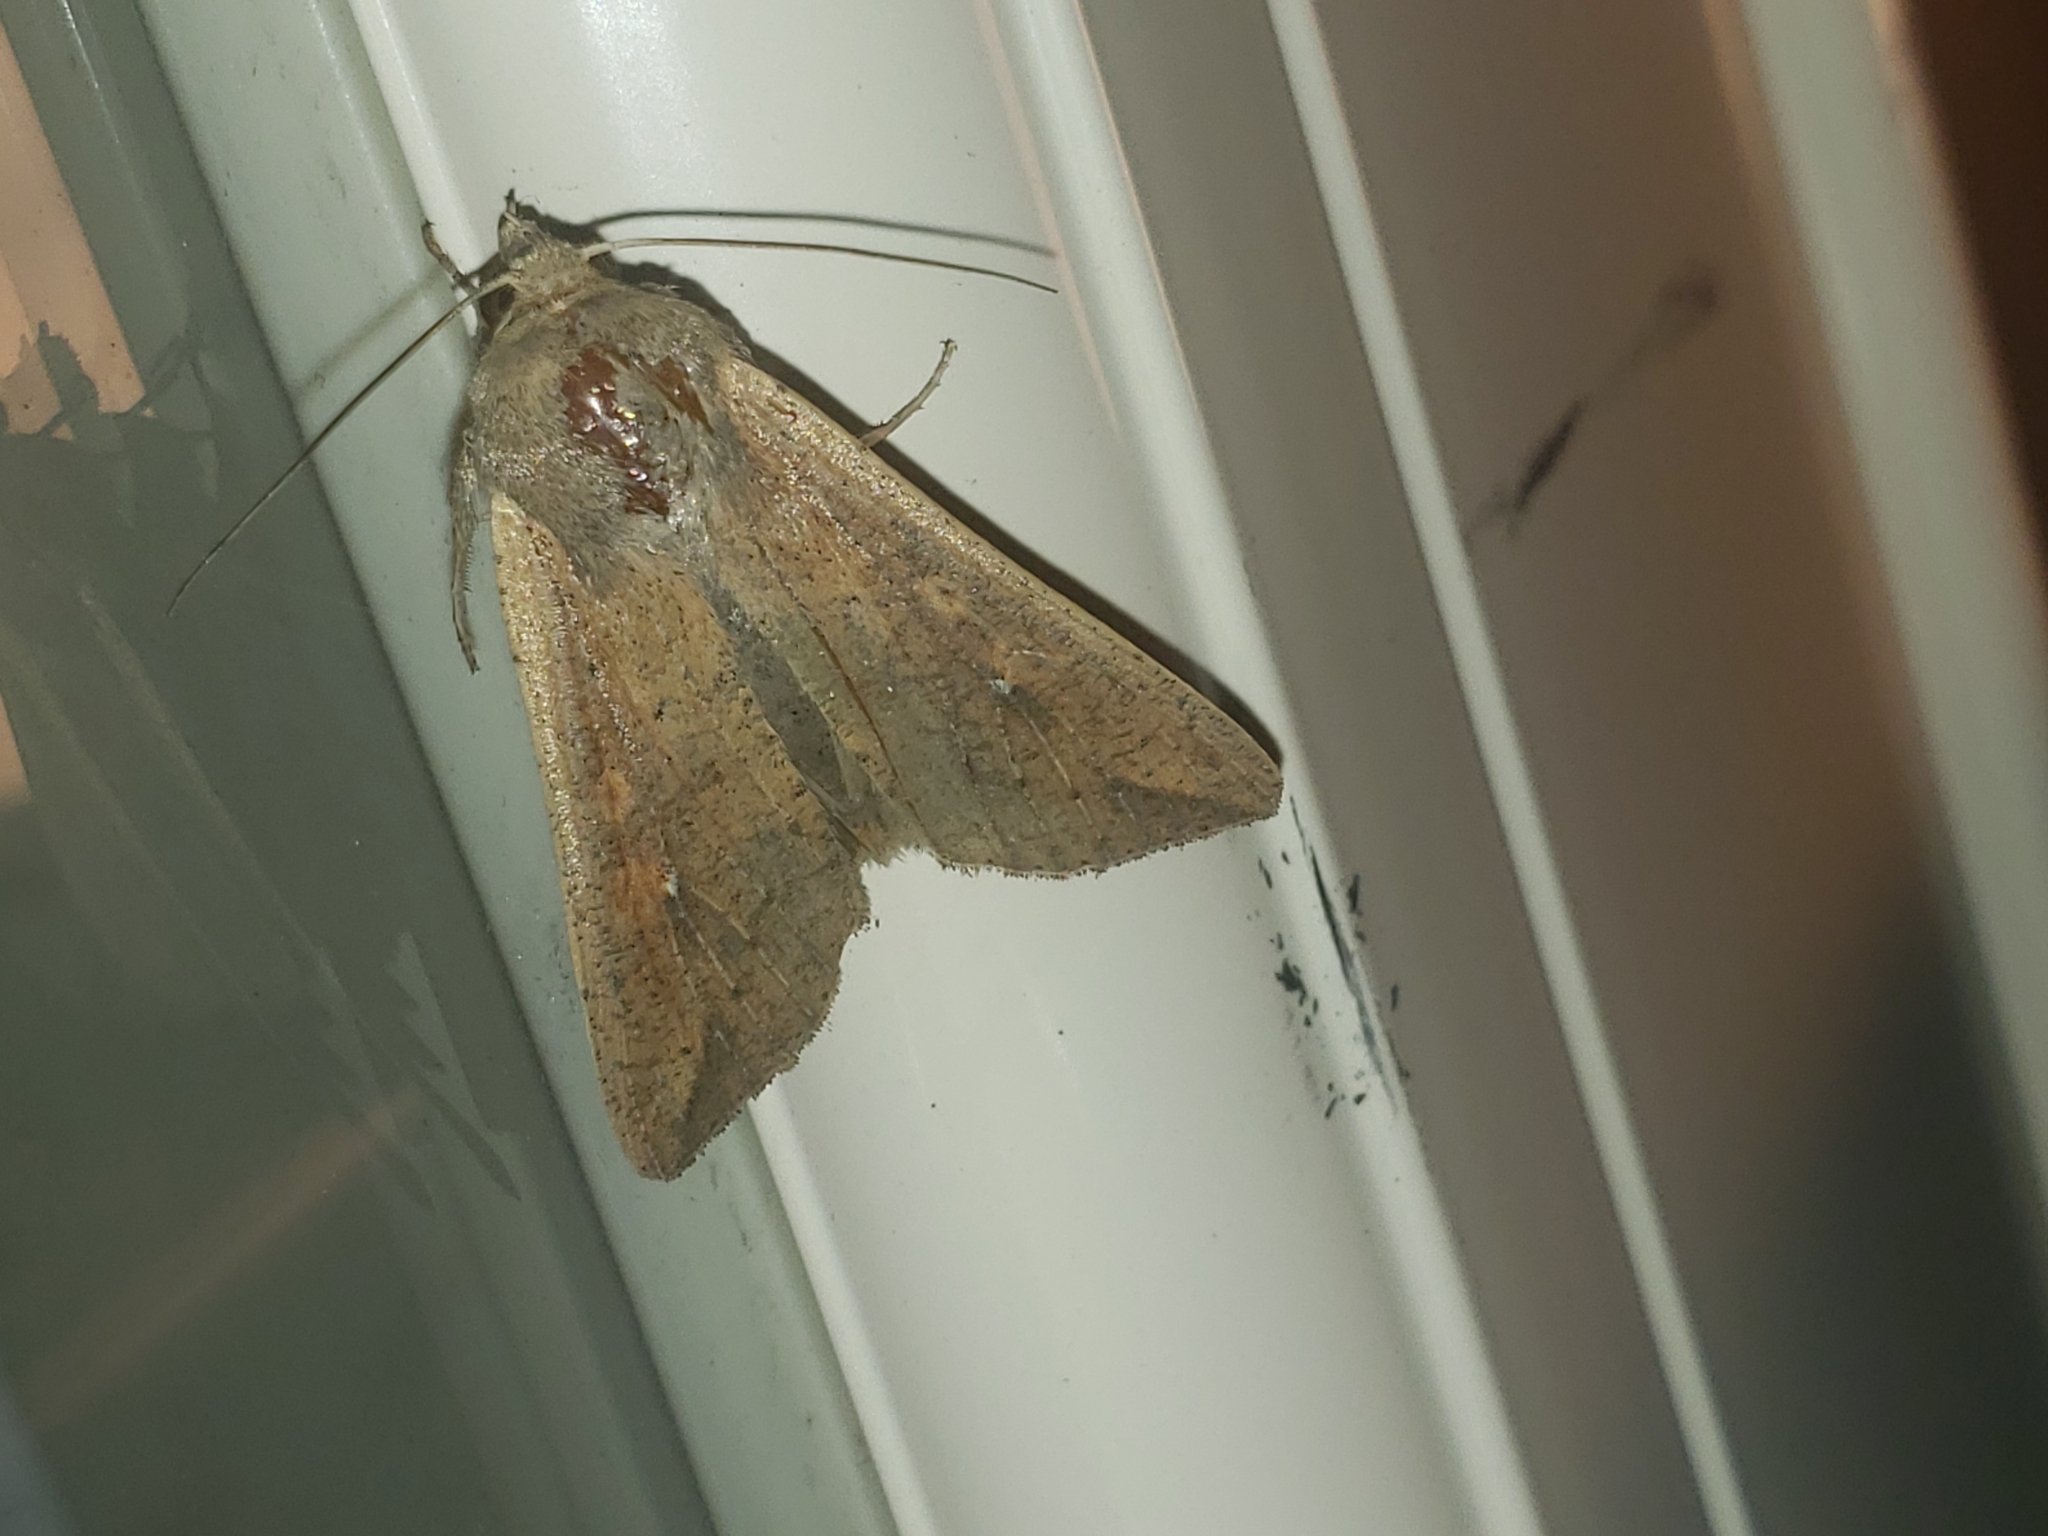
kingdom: Animalia
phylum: Arthropoda
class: Insecta
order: Lepidoptera
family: Noctuidae
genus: Mythimna
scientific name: Mythimna unipuncta
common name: White-speck
